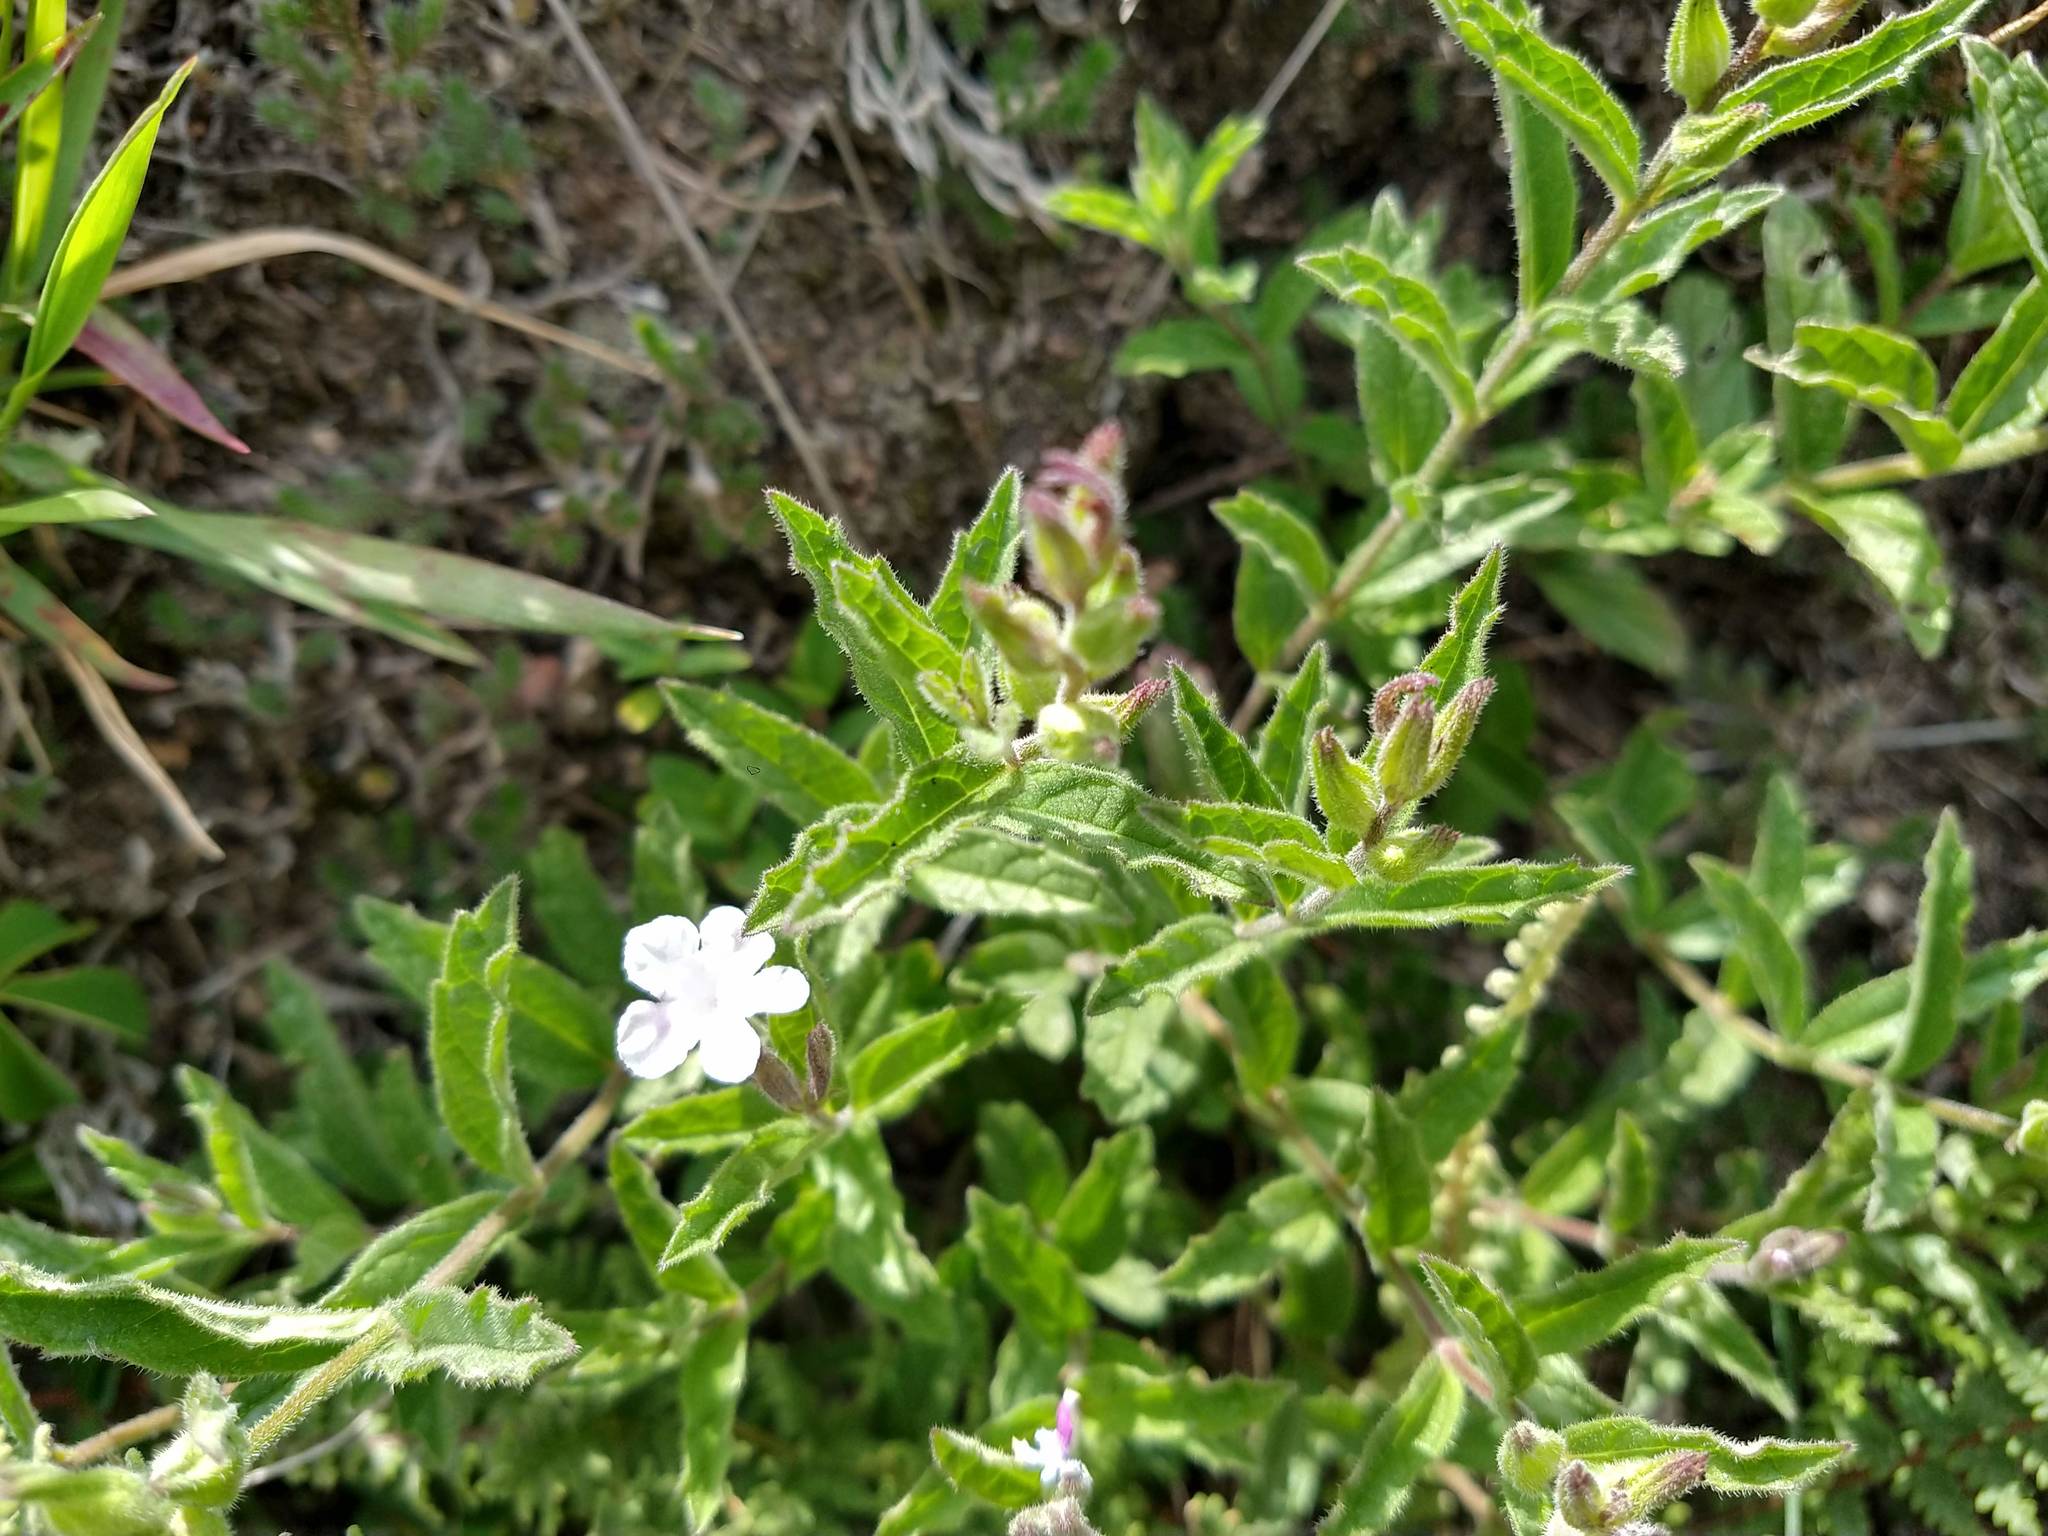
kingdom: Plantae
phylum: Tracheophyta
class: Magnoliopsida
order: Lamiales
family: Verbenaceae
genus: Priva
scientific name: Priva grandiflora
